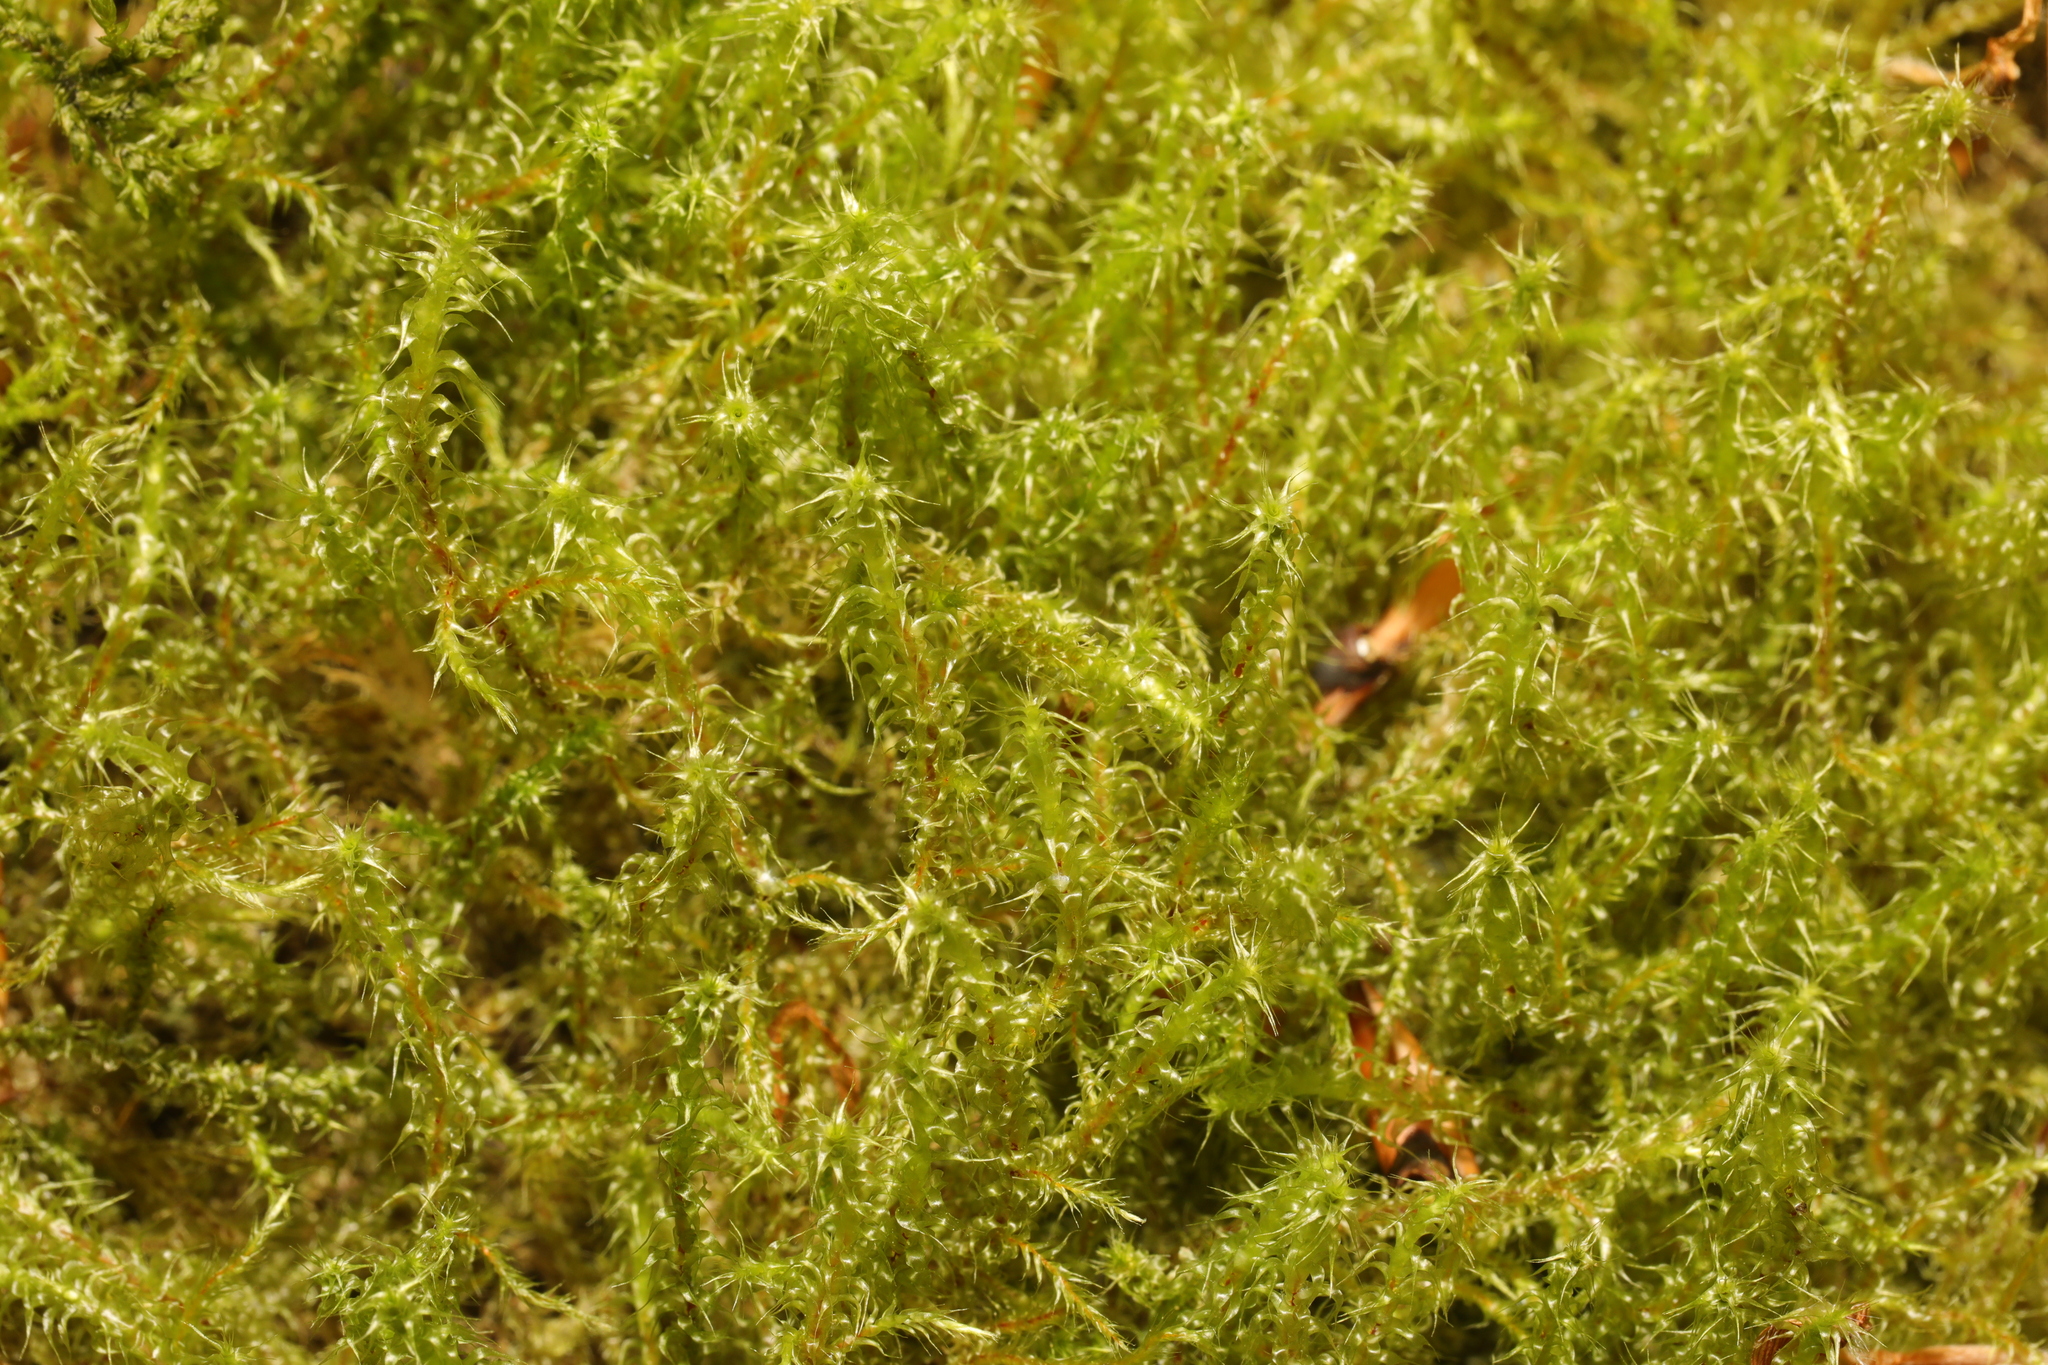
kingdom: Plantae
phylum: Bryophyta
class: Bryopsida
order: Hypnales
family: Hylocomiaceae
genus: Rhytidiadelphus
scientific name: Rhytidiadelphus squarrosus
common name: Springy turf-moss
